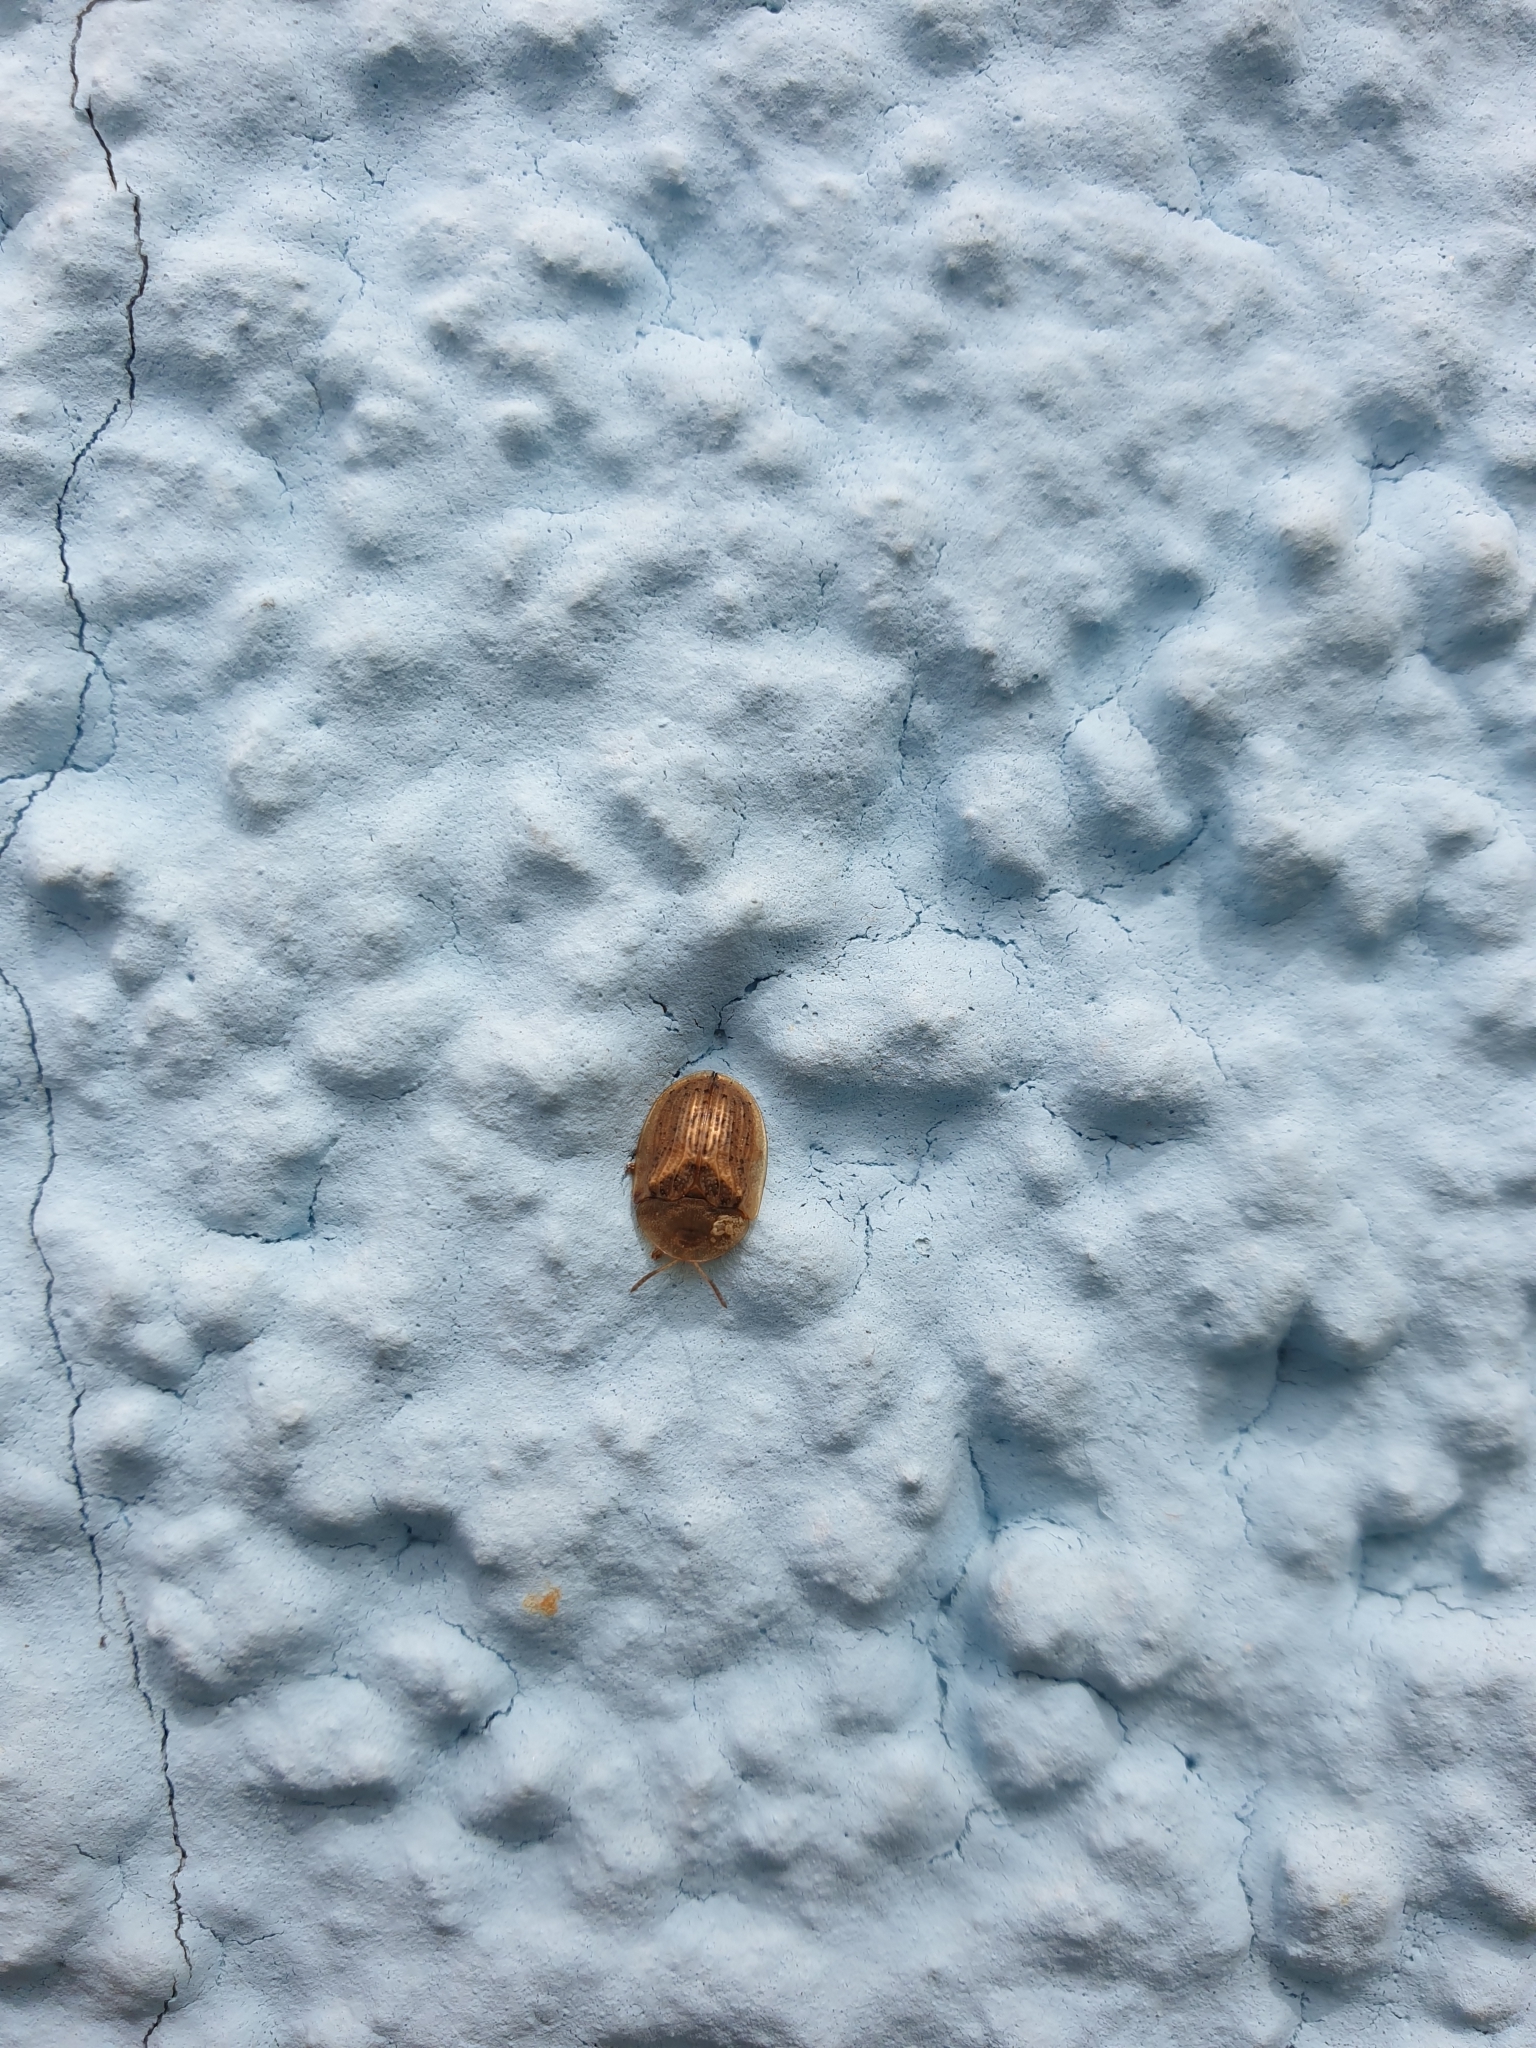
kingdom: Animalia
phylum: Arthropoda
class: Insecta
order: Coleoptera
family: Chrysomelidae
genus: Cassida
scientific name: Cassida nebulosa
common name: Beet tortoise beetle
